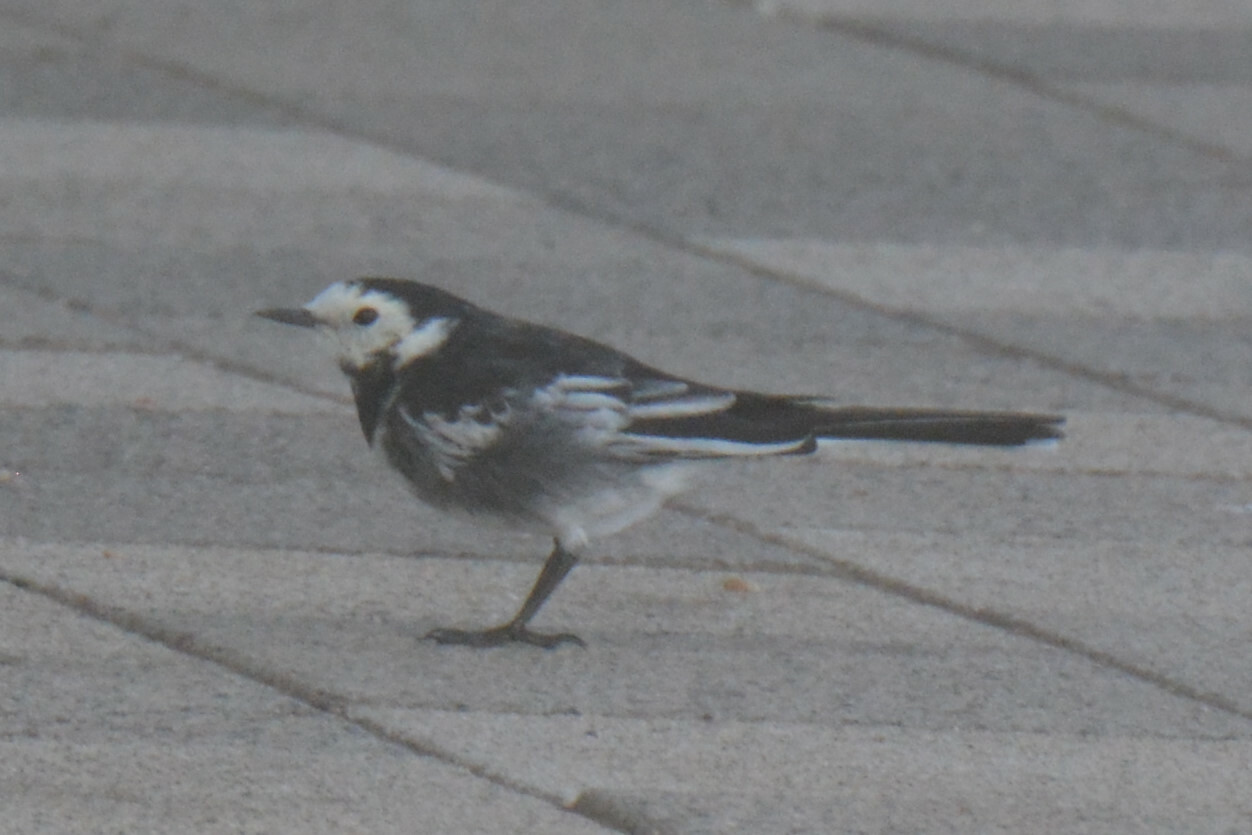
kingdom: Animalia
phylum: Chordata
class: Aves
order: Passeriformes
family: Motacillidae
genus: Motacilla
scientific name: Motacilla alba
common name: White wagtail
